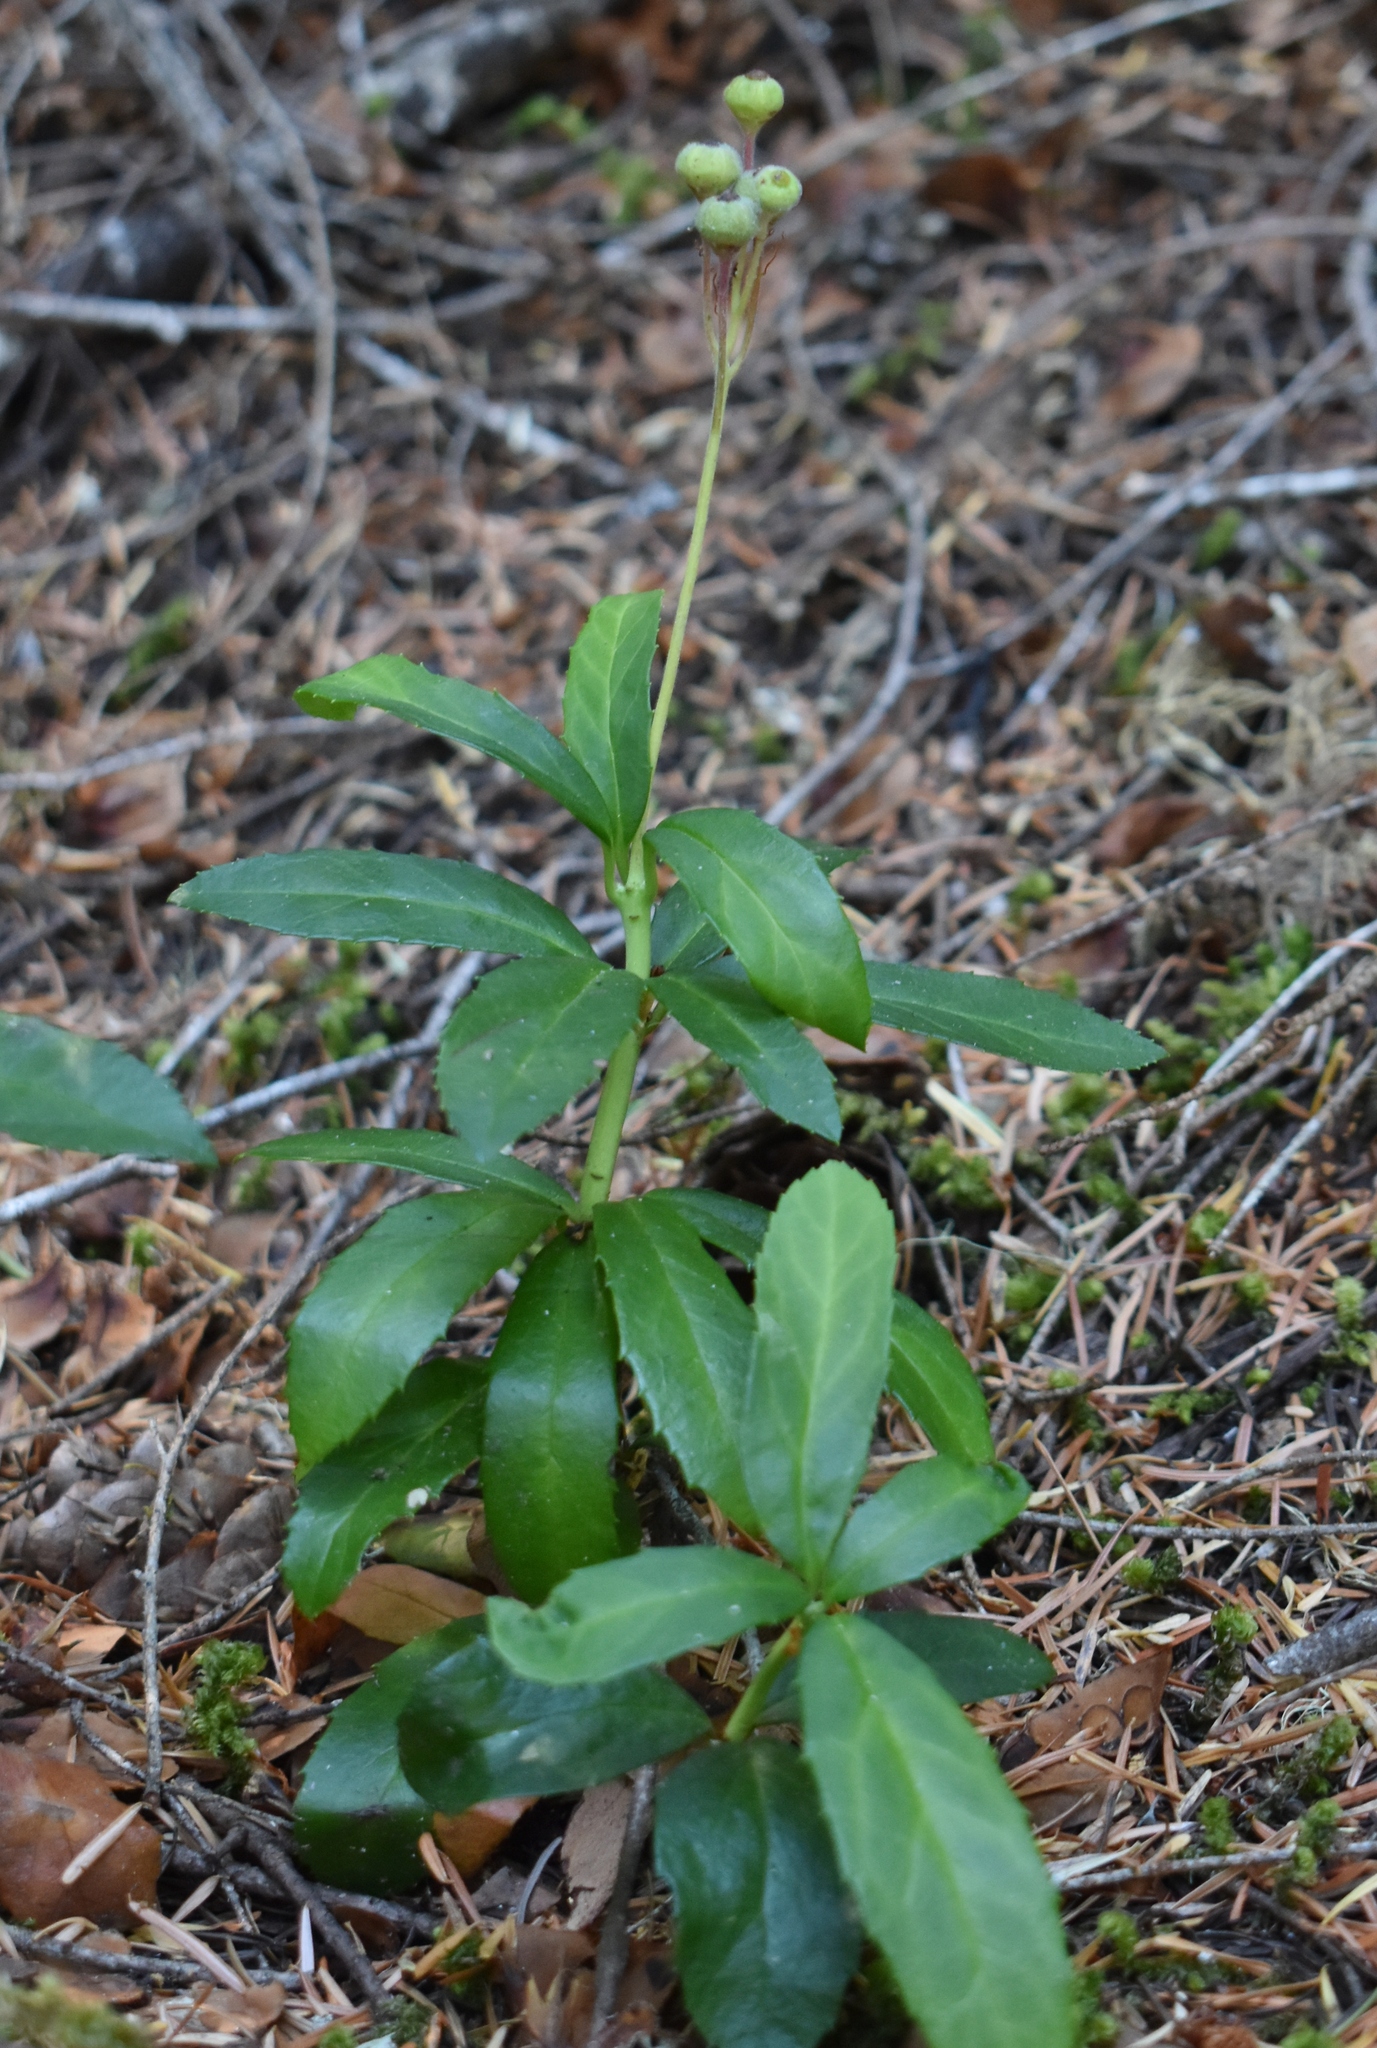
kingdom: Plantae
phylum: Tracheophyta
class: Magnoliopsida
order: Ericales
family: Ericaceae
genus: Chimaphila
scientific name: Chimaphila umbellata
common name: Pipsissewa
